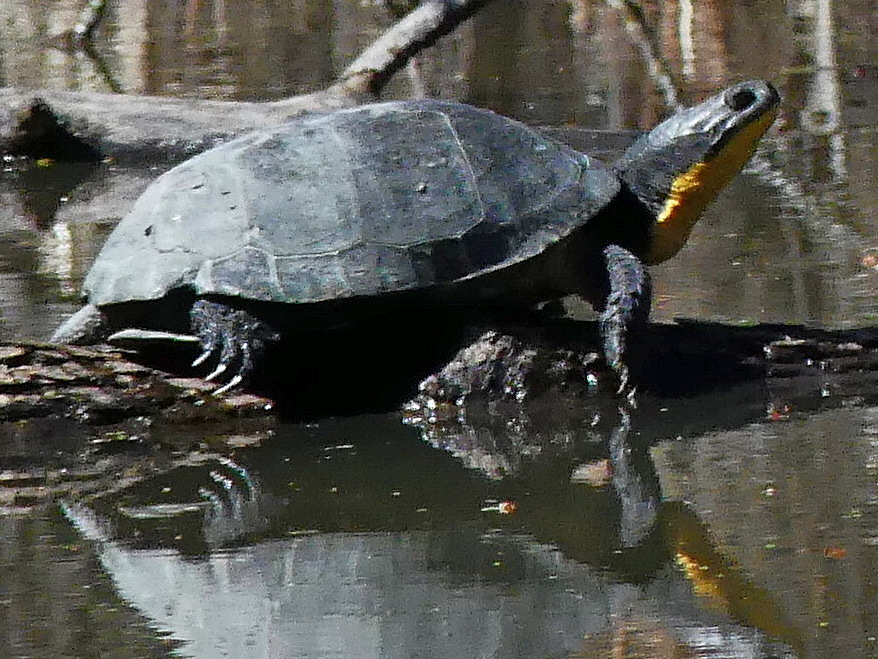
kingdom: Animalia
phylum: Chordata
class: Testudines
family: Emydidae
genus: Emys
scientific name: Emys blandingii
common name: Blanding's turtle
